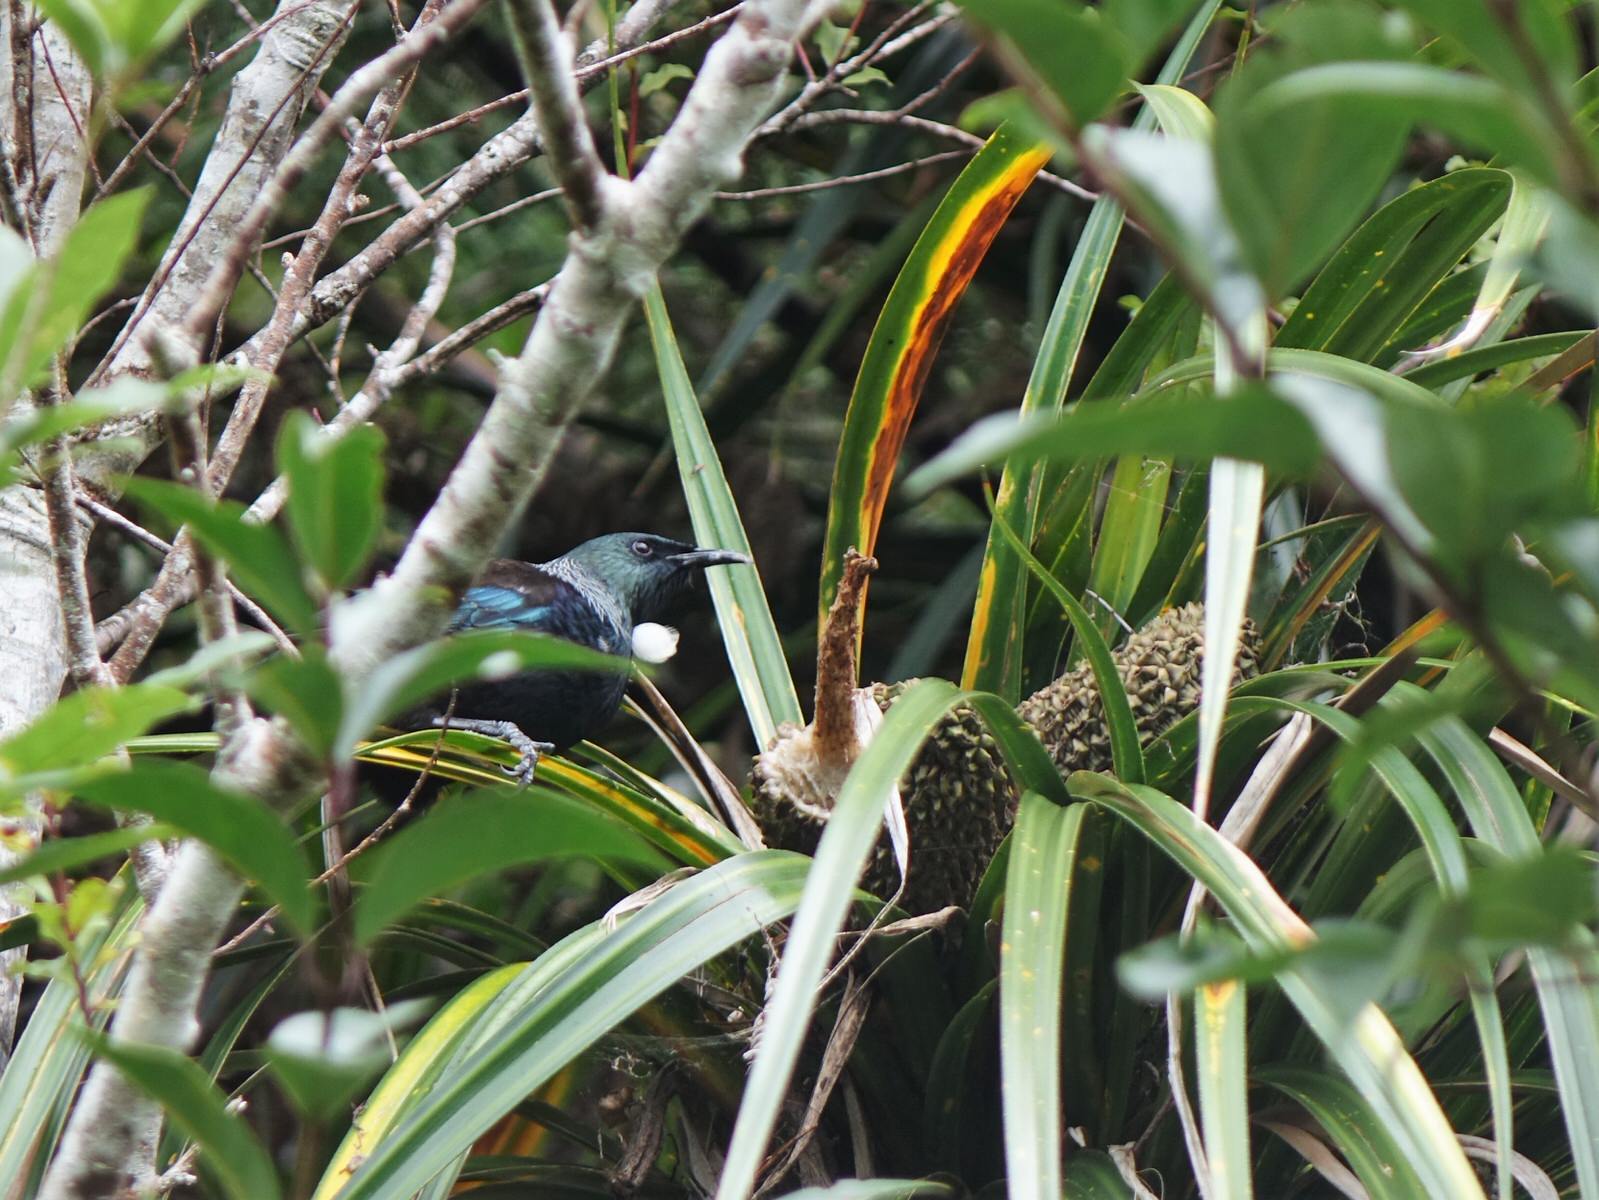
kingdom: Animalia
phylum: Chordata
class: Aves
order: Passeriformes
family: Meliphagidae
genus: Prosthemadera
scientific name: Prosthemadera novaeseelandiae
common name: Tui
